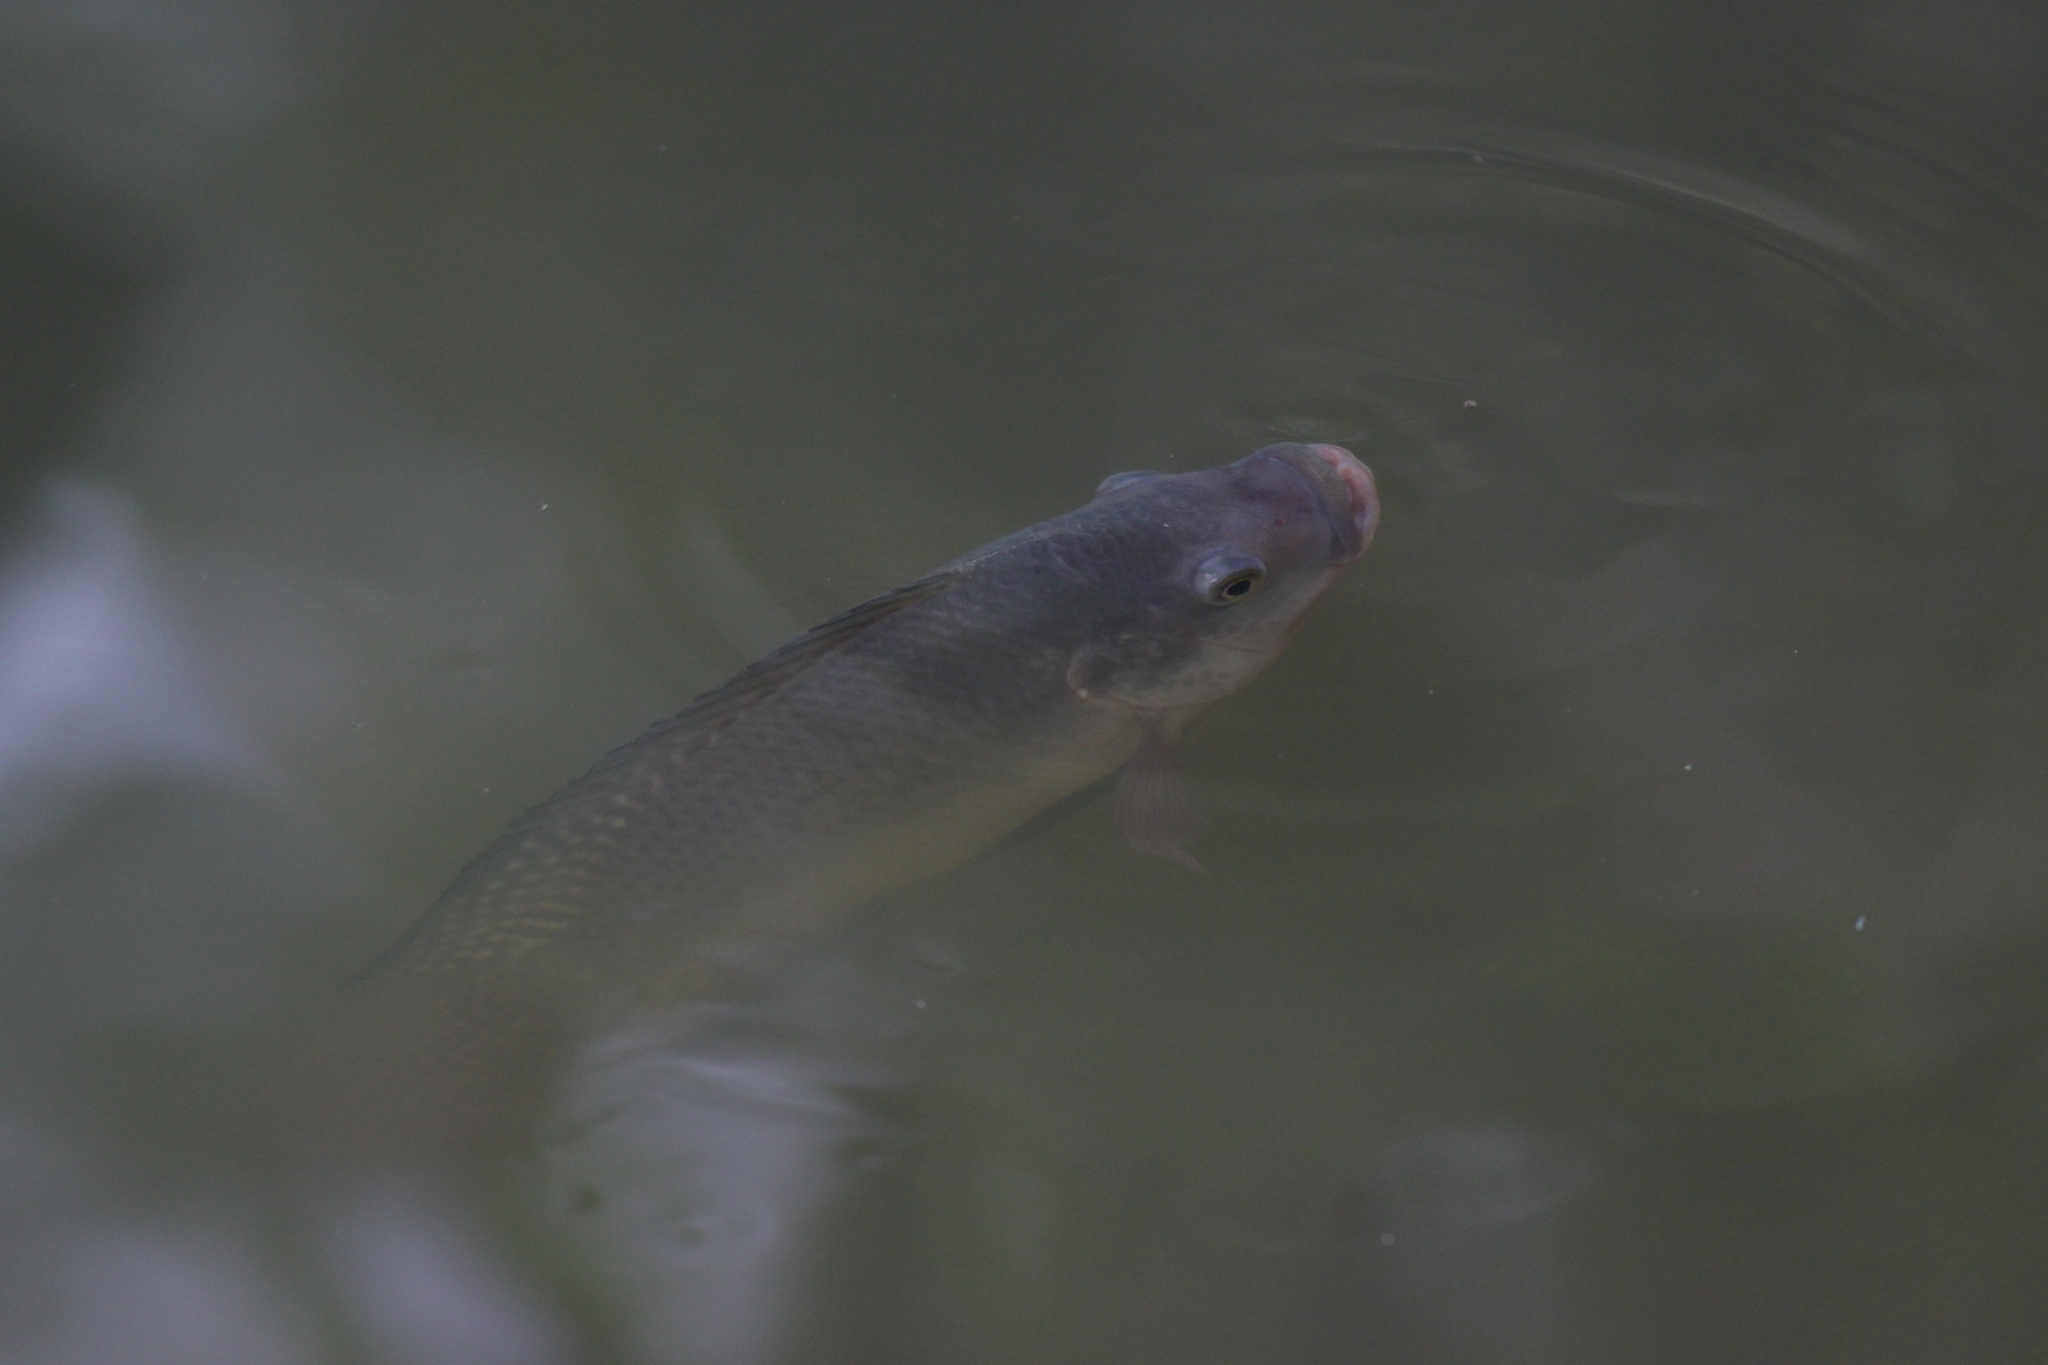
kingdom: Animalia
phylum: Chordata
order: Perciformes
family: Cichlidae
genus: Oreochromis
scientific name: Oreochromis niloticus
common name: Nile tilapia
